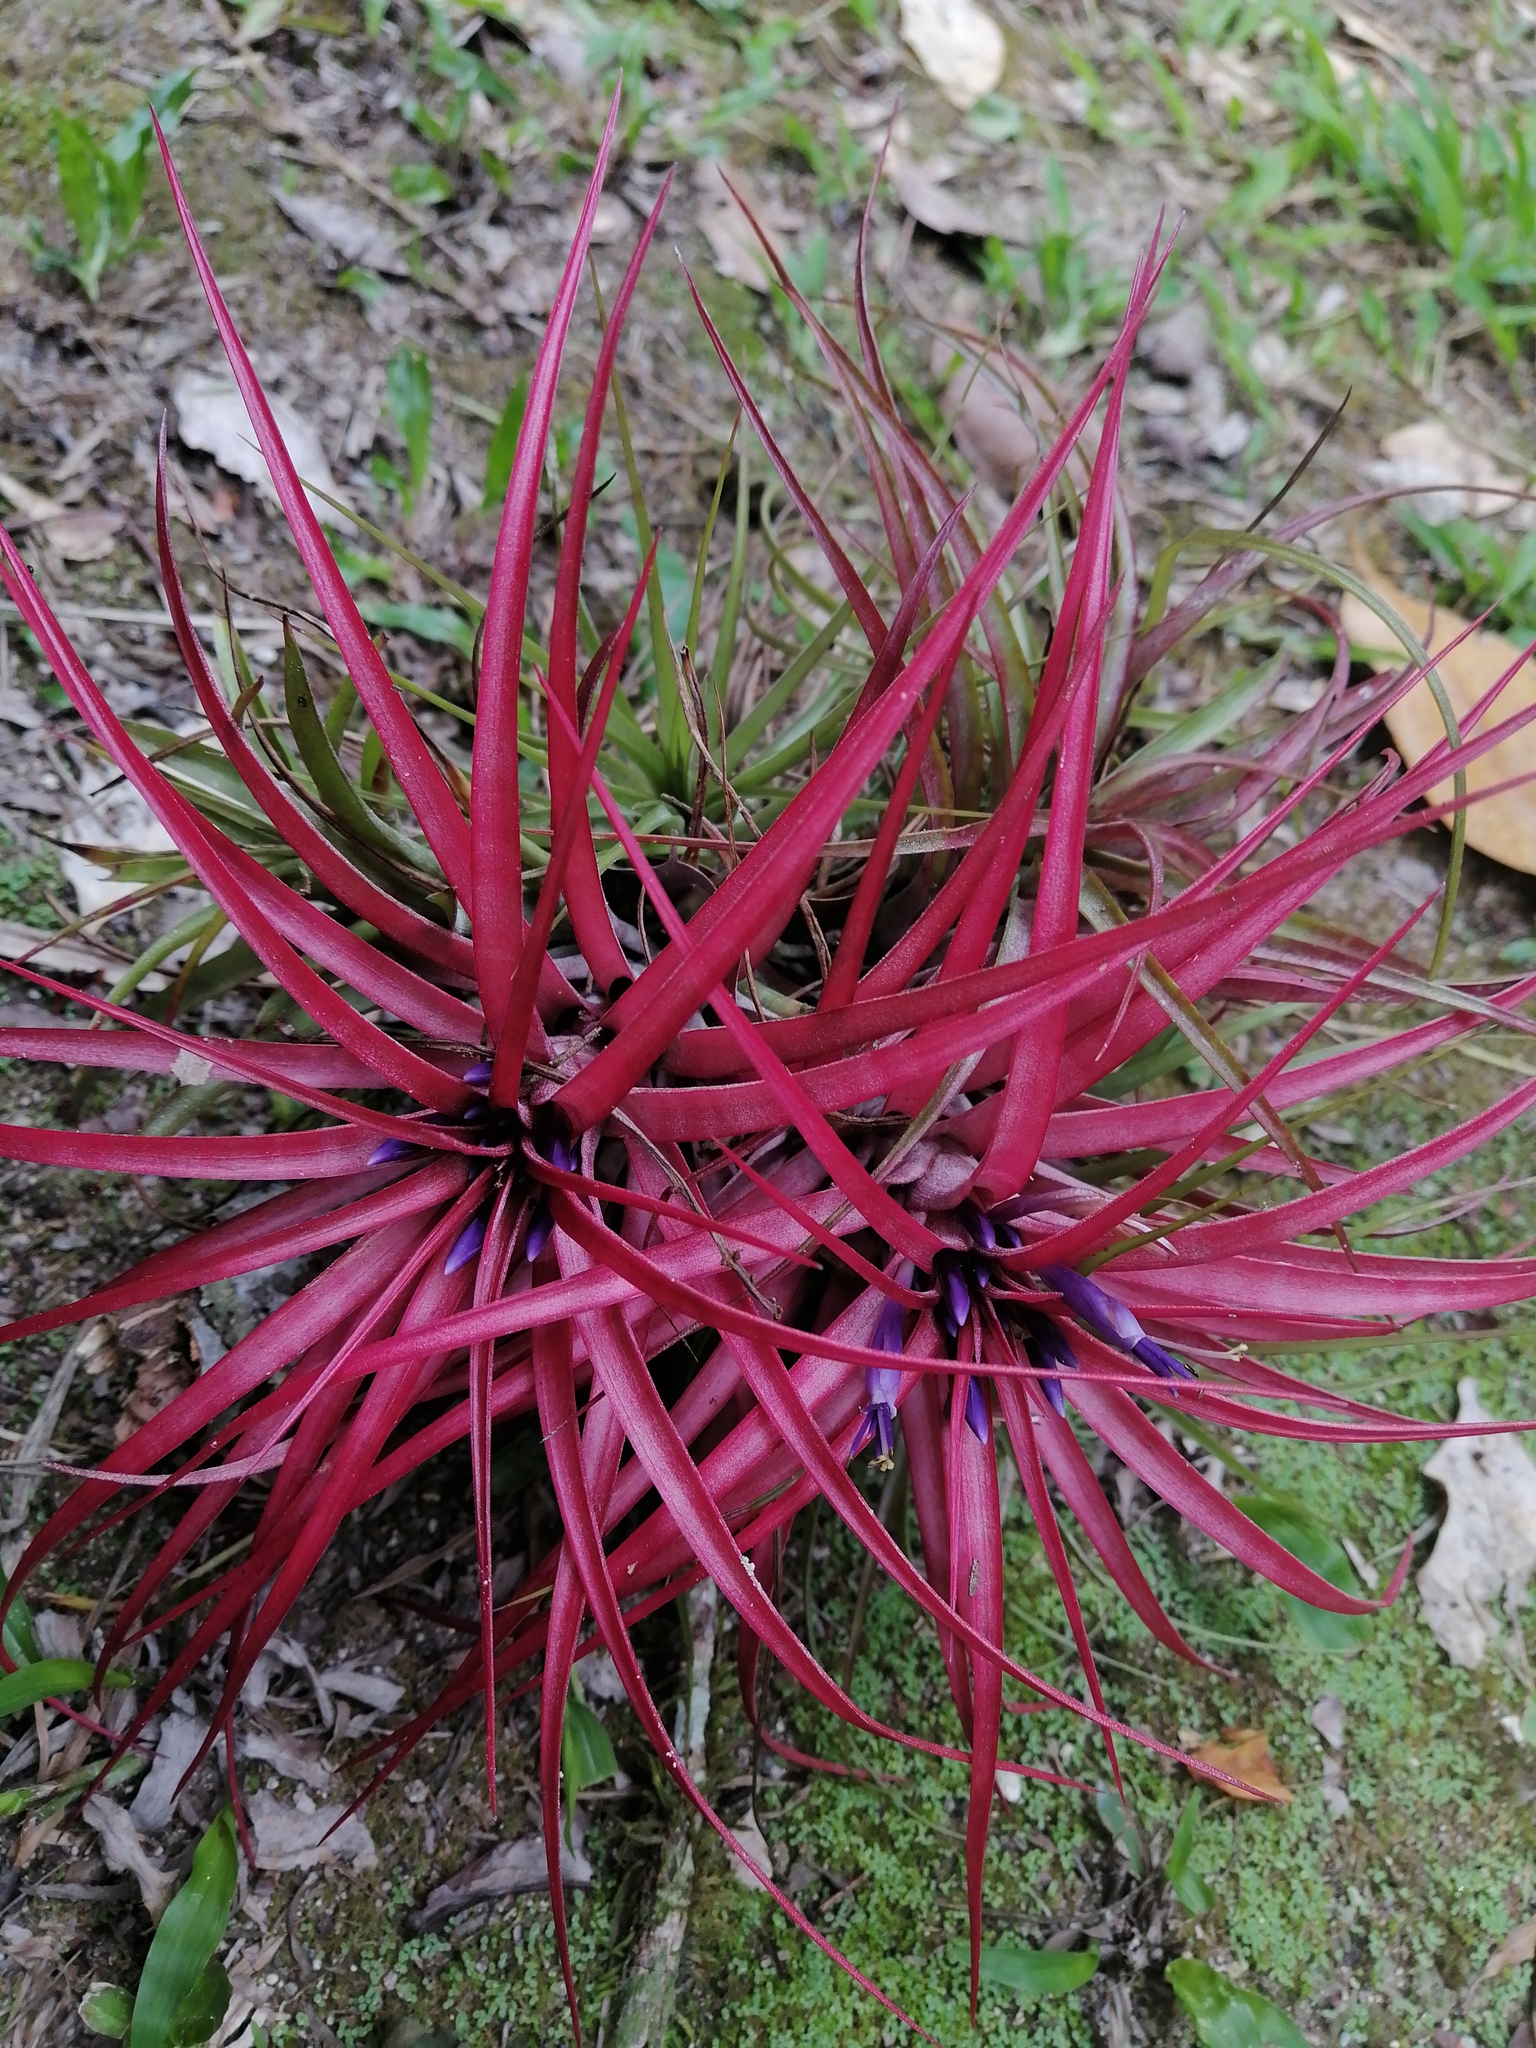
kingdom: Plantae
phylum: Tracheophyta
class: Liliopsida
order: Poales
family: Bromeliaceae
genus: Tillandsia
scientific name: Tillandsia brachycaulos
